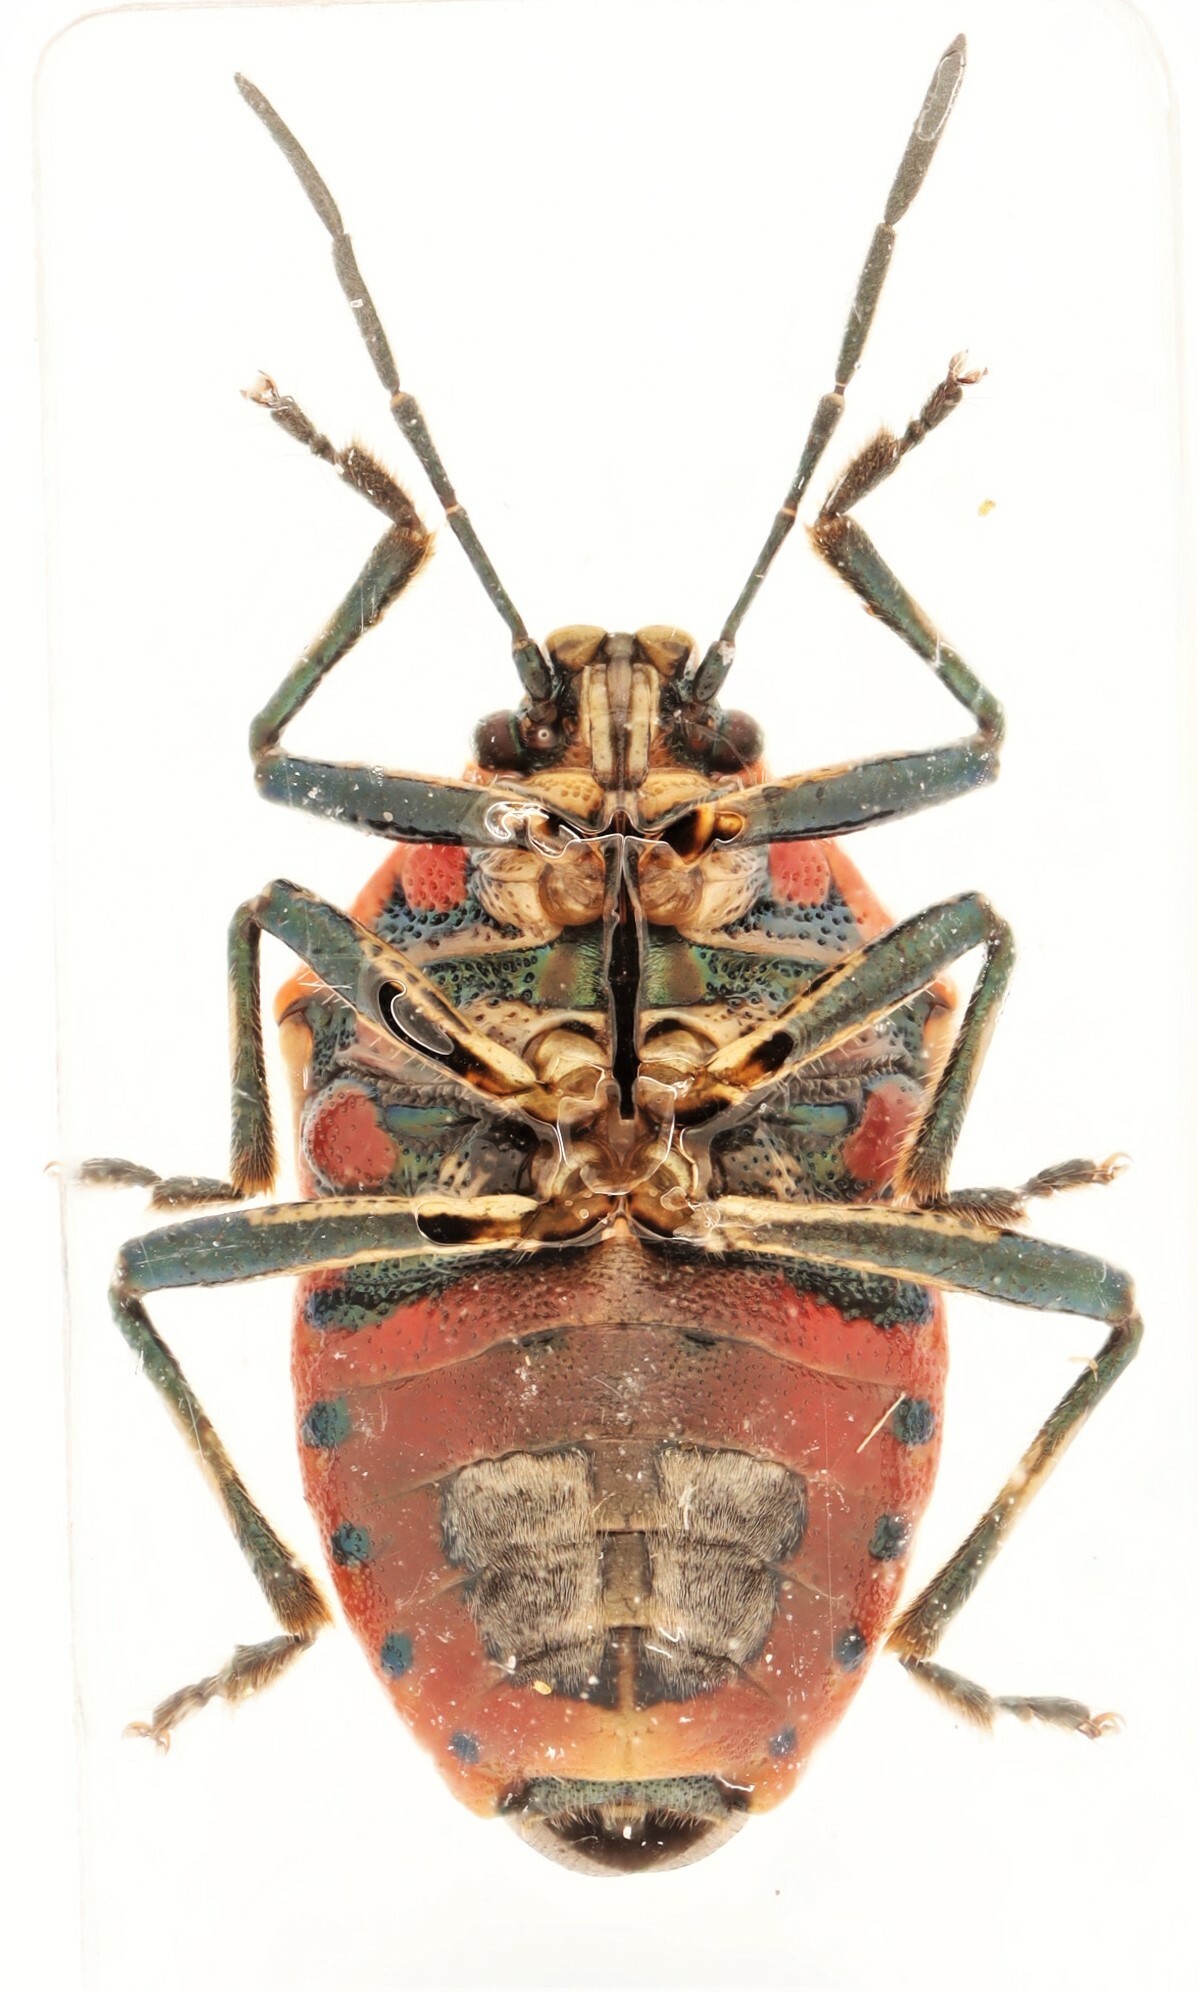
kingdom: Animalia
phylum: Arthropoda
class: Insecta
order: Hemiptera
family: Pentatomidae
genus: Perillus
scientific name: Perillus strigipes
